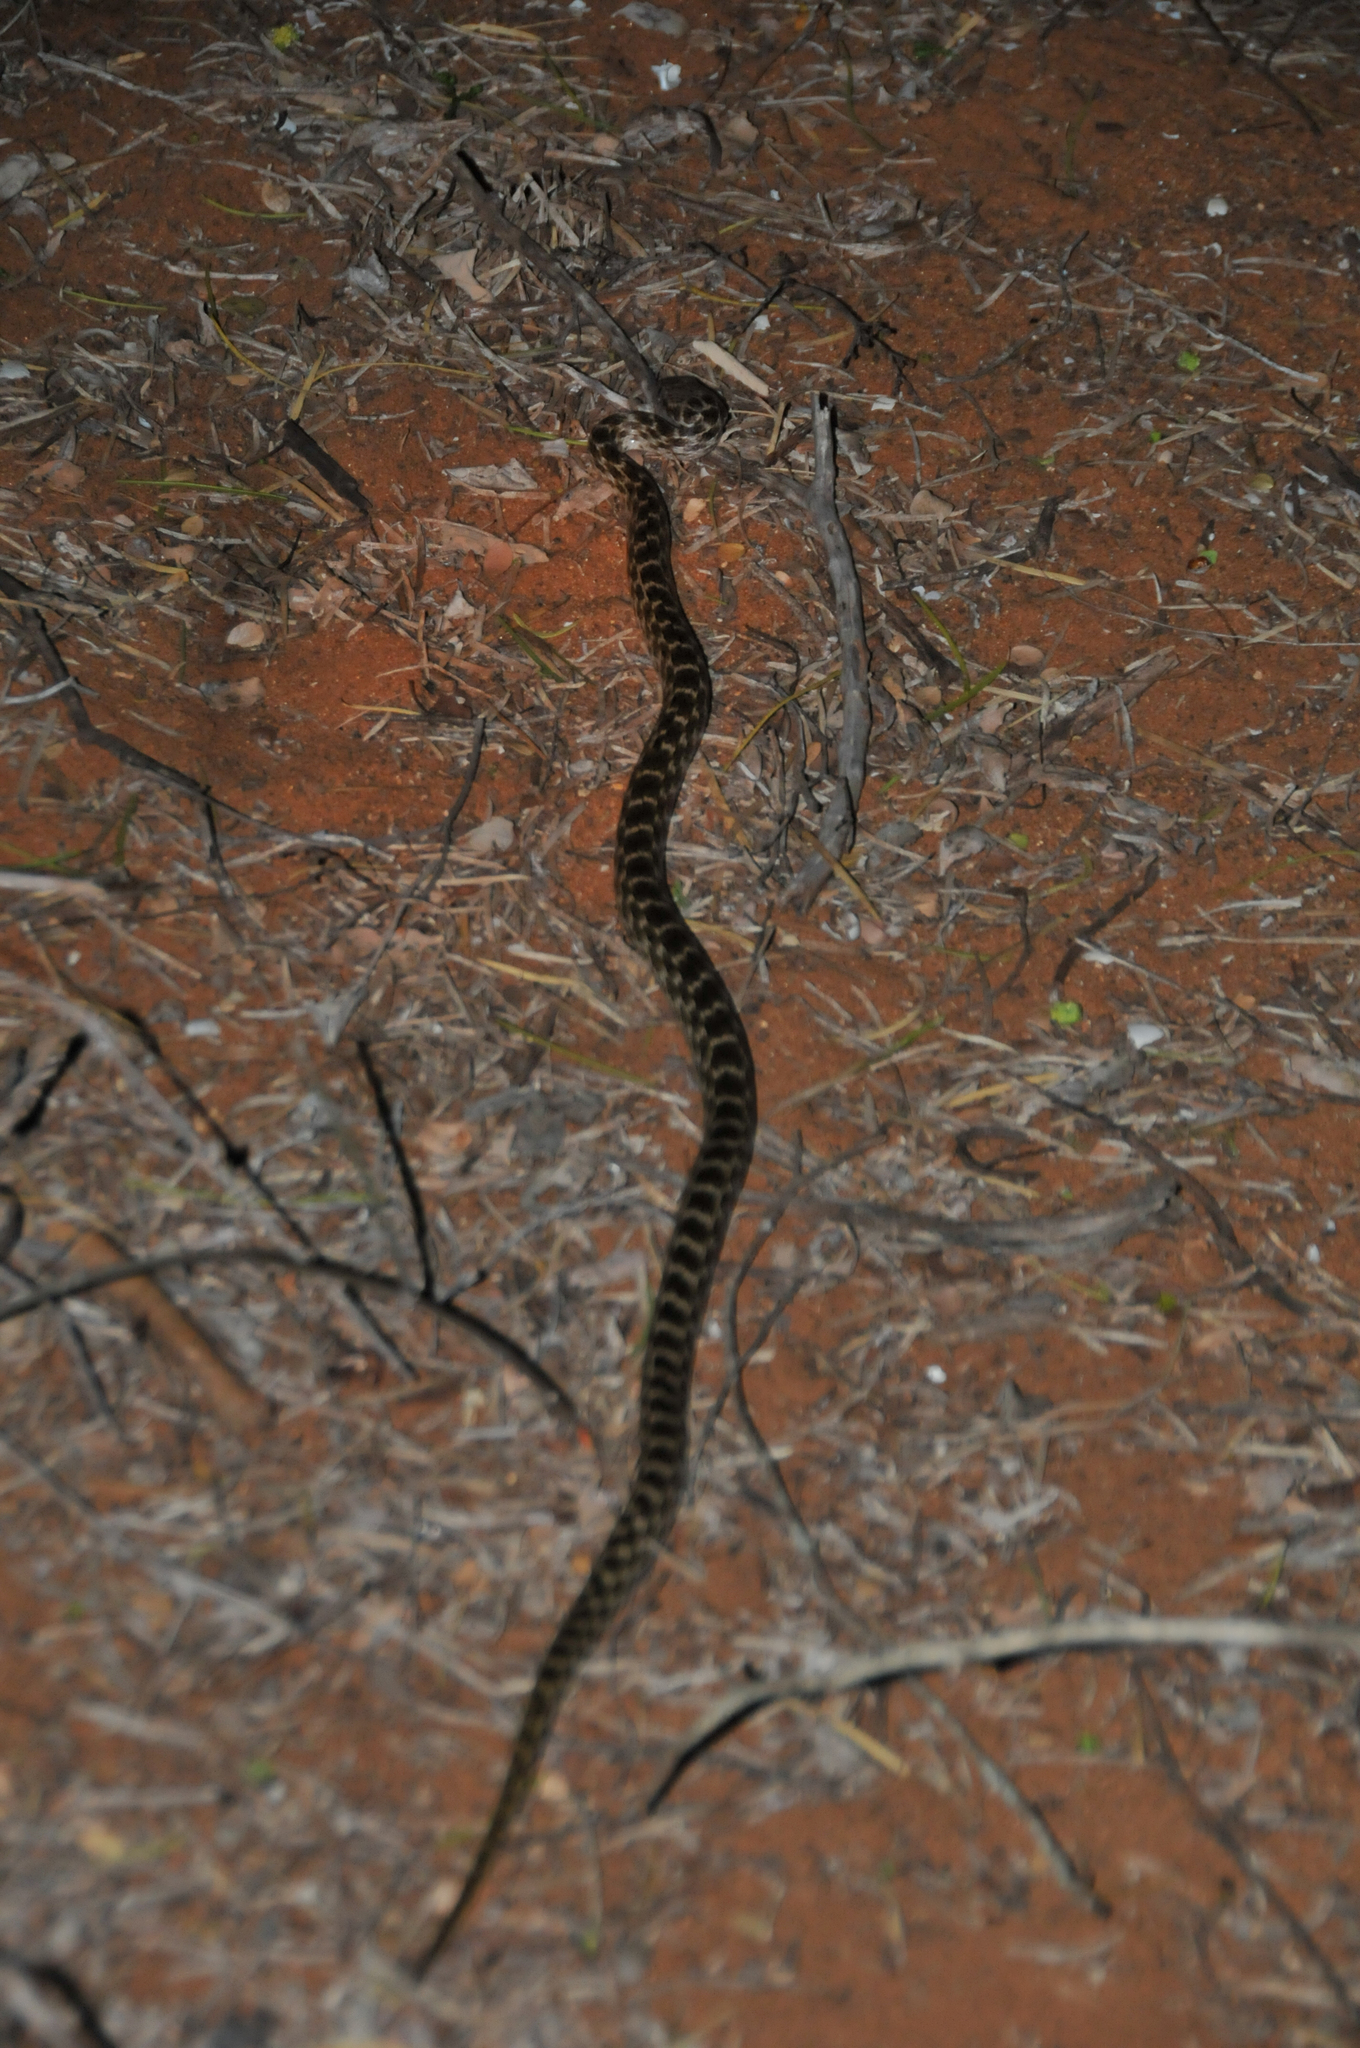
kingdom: Animalia
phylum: Chordata
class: Squamata
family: Pseudoxyrhophiidae
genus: Madagascarophis
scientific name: Madagascarophis colubrinus
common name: Madagascar night snake
